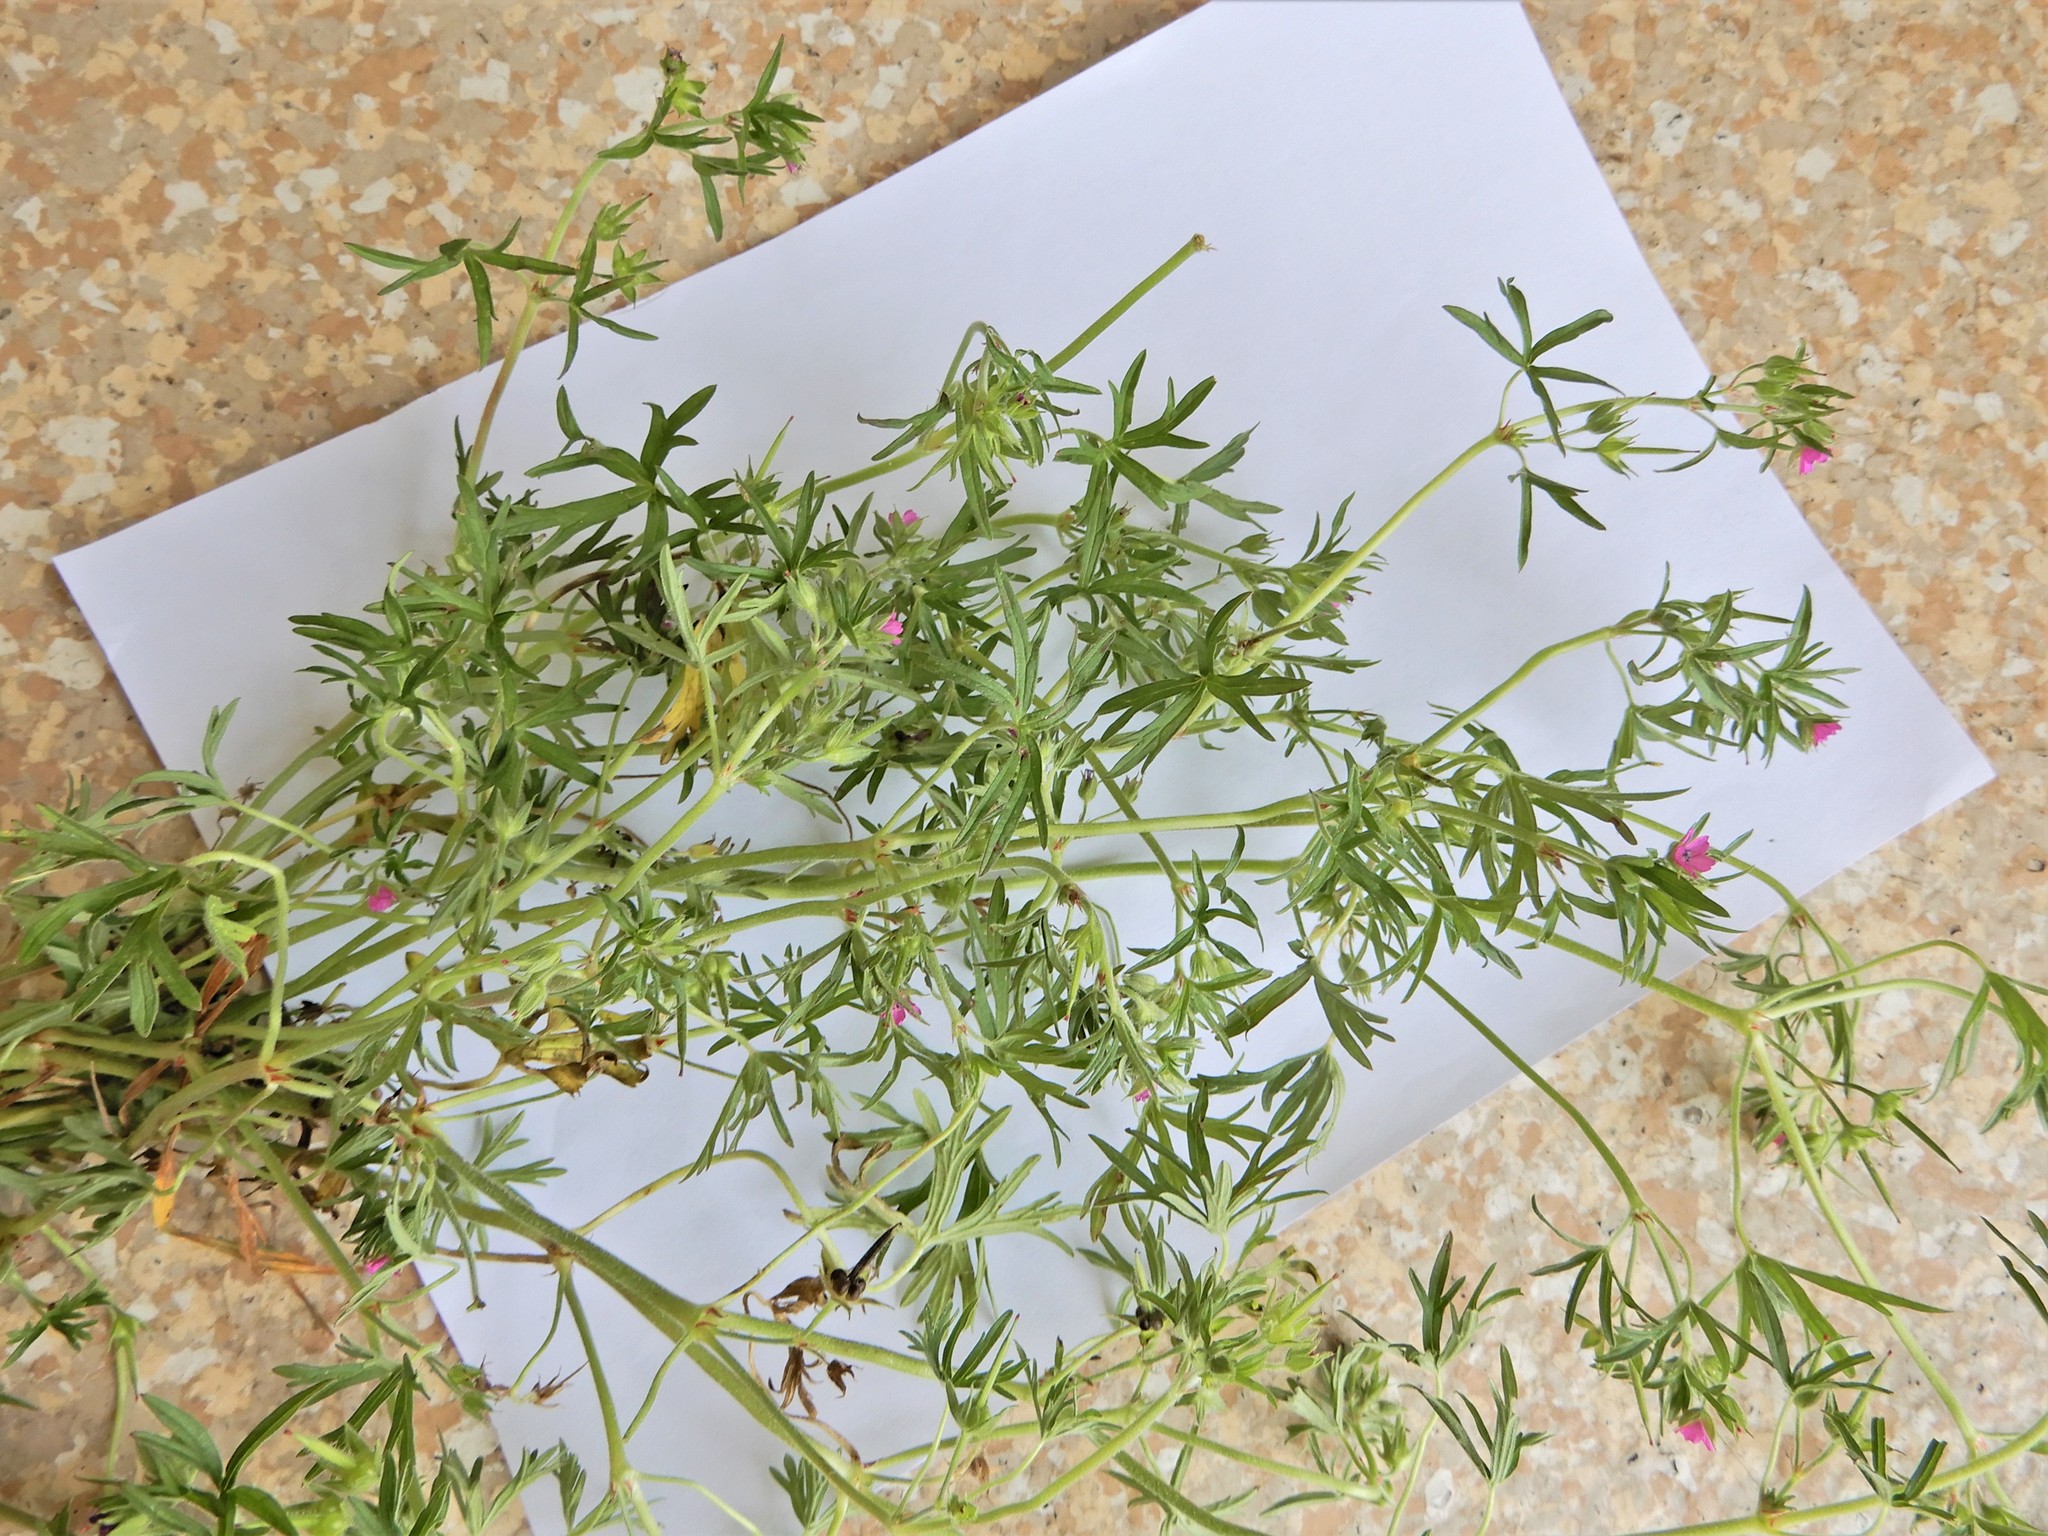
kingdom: Plantae
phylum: Tracheophyta
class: Magnoliopsida
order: Geraniales
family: Geraniaceae
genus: Geranium
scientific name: Geranium dissectum
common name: Cut-leaved crane's-bill
